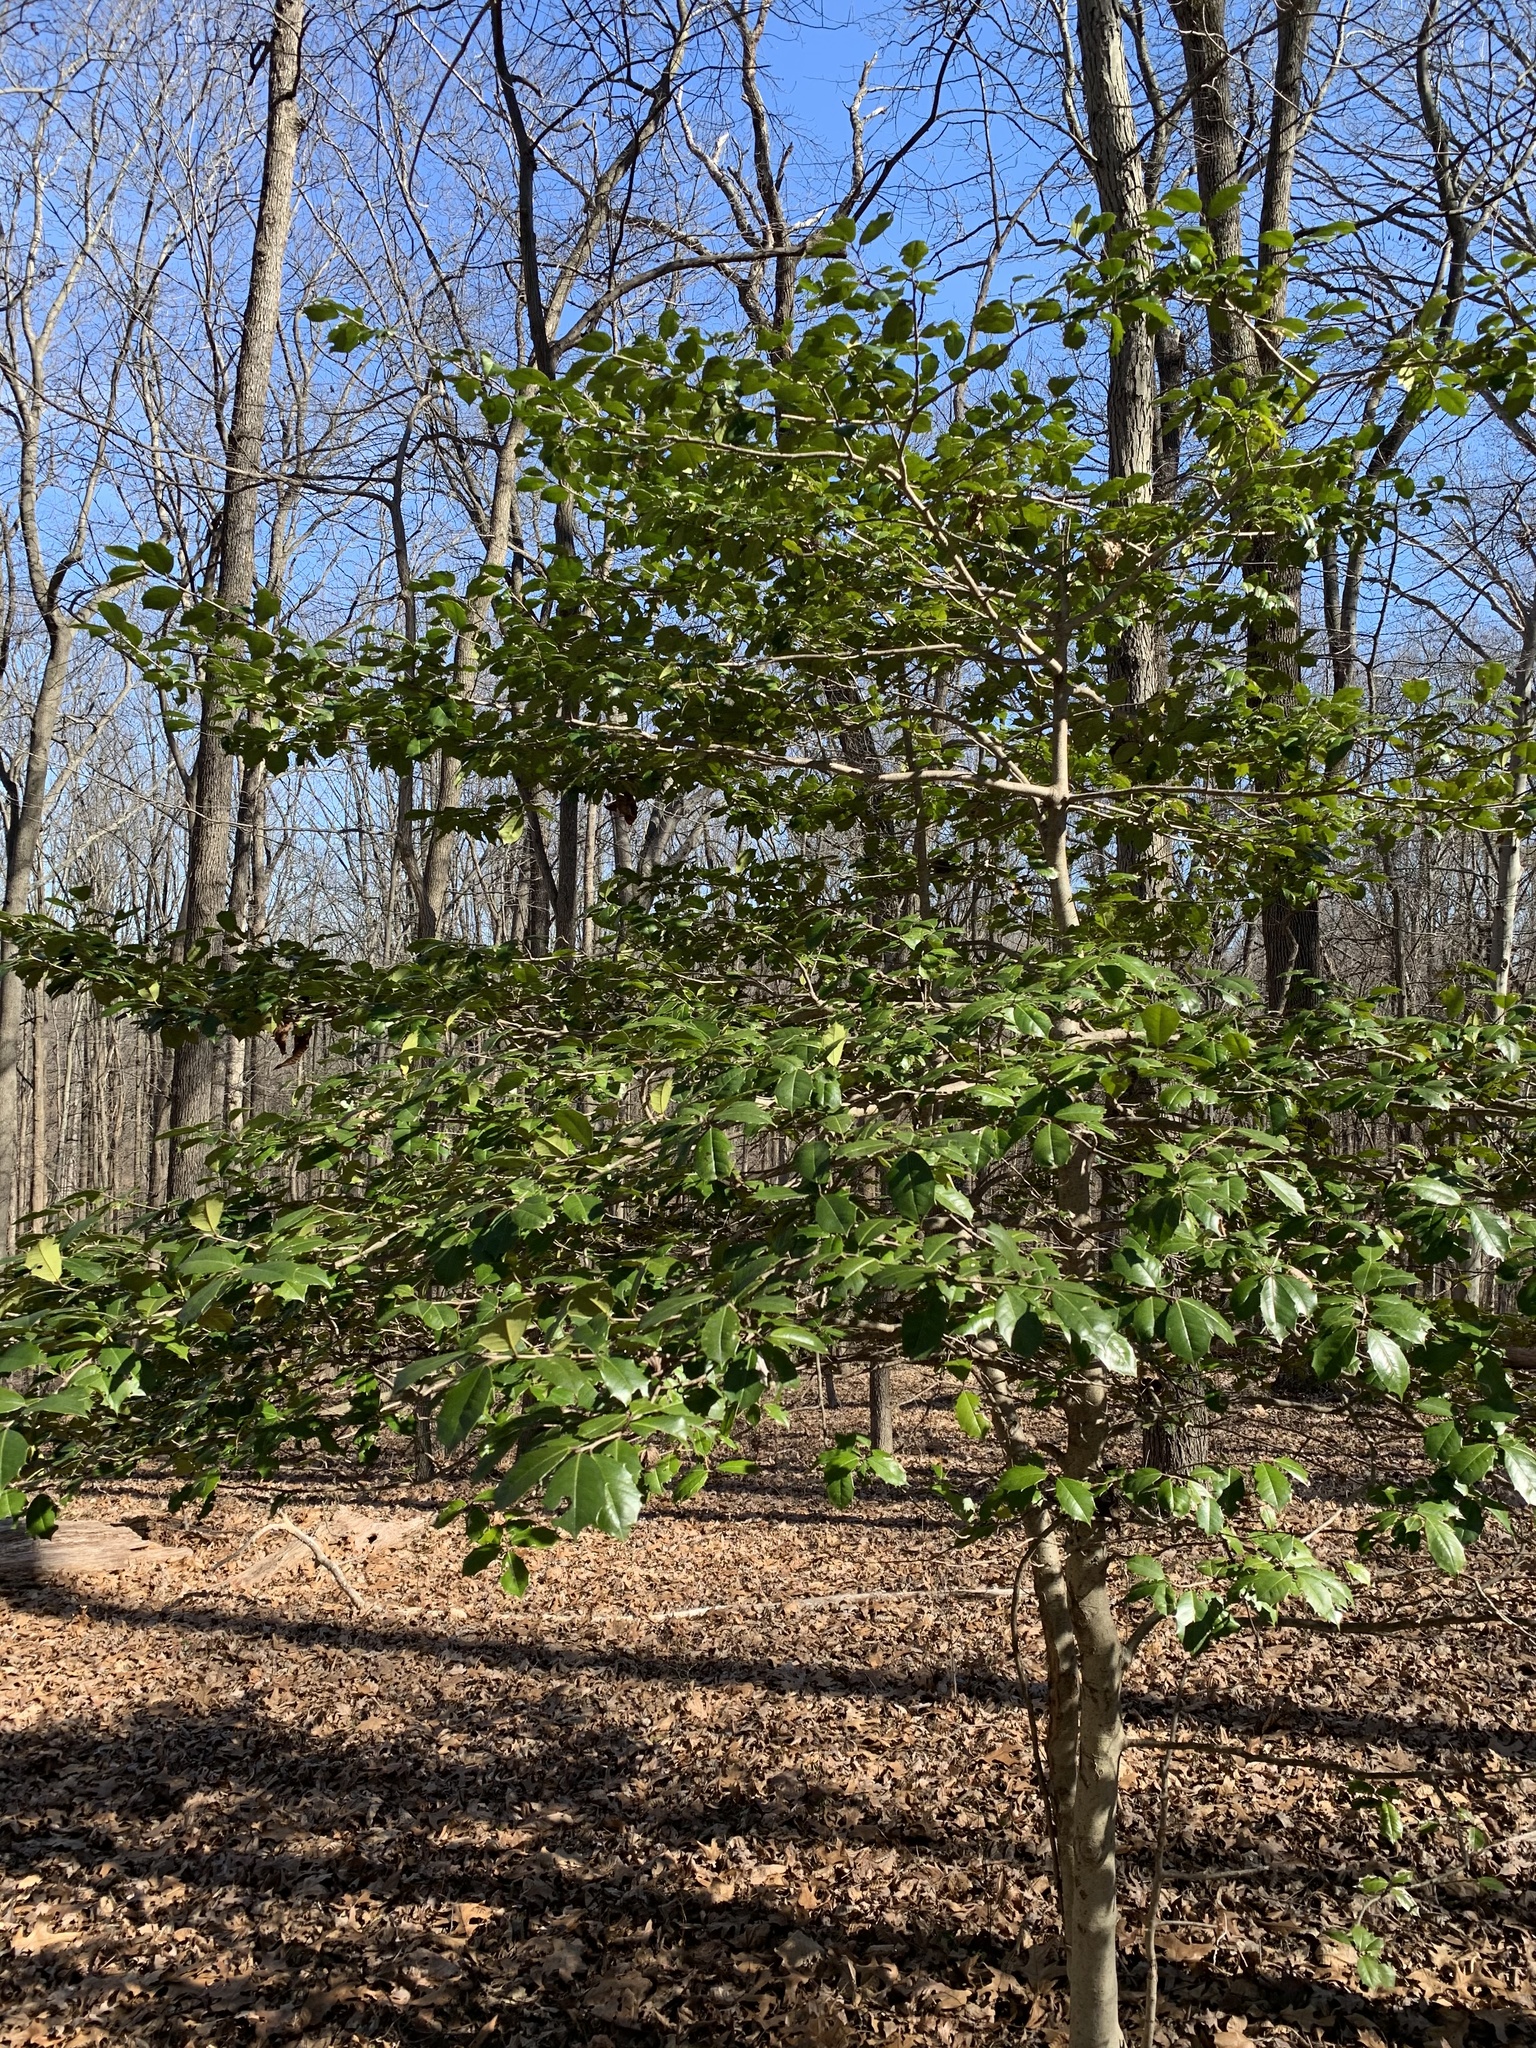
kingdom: Plantae
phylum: Tracheophyta
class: Magnoliopsida
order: Aquifoliales
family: Aquifoliaceae
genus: Ilex
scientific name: Ilex opaca
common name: American holly
